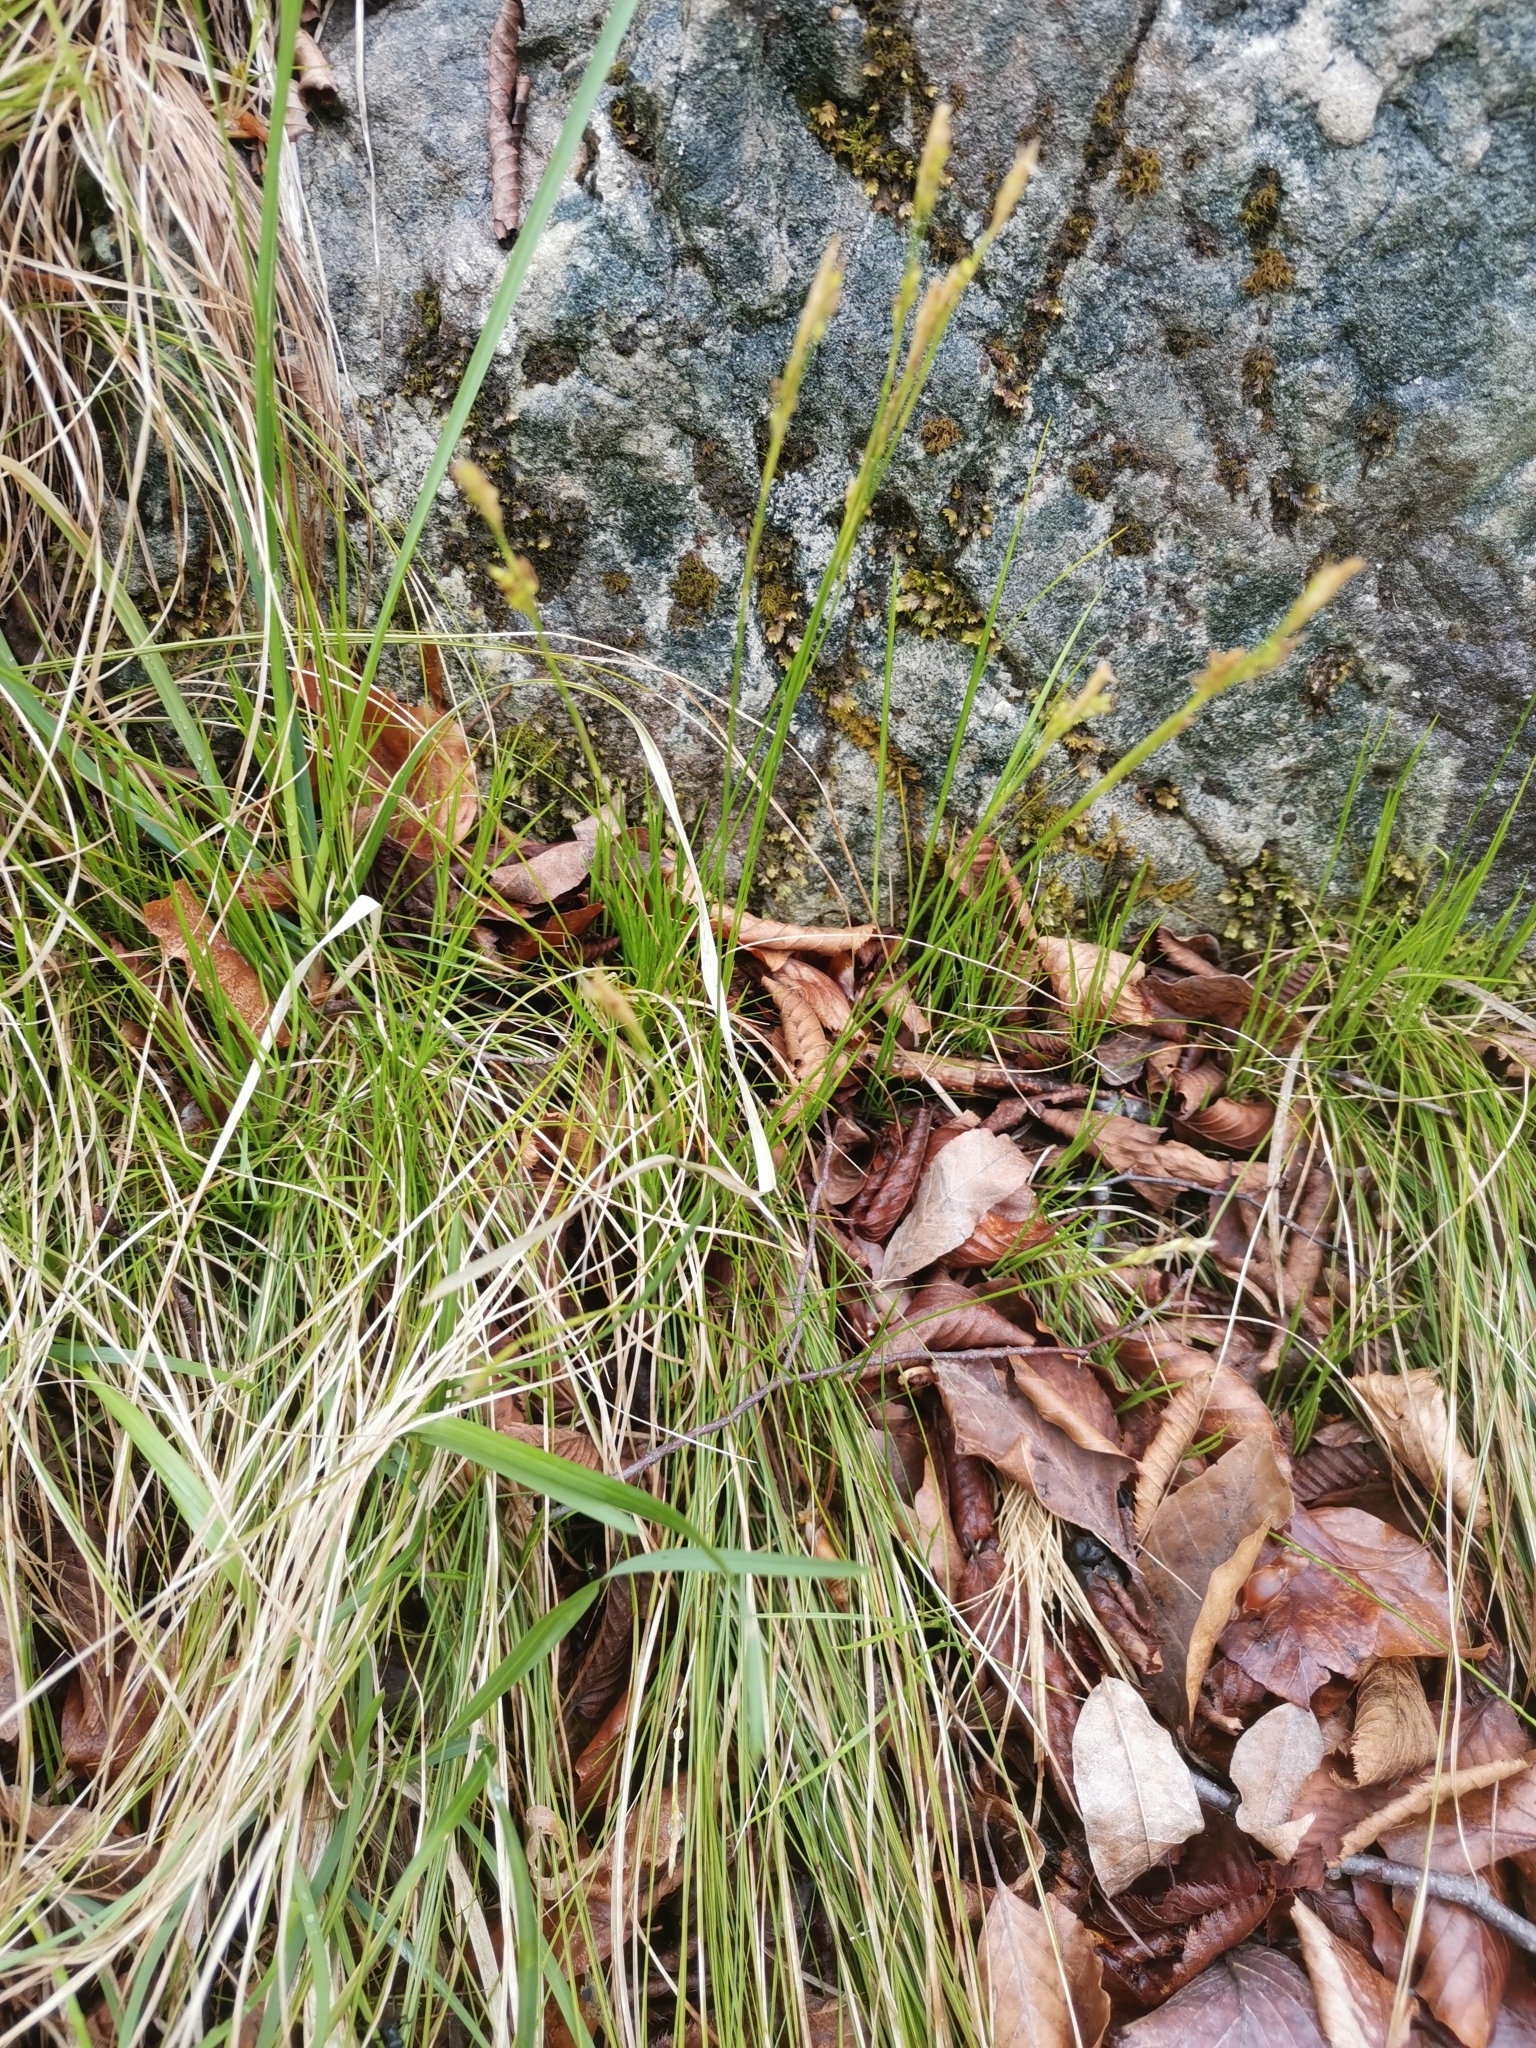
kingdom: Plantae
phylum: Tracheophyta
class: Liliopsida
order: Poales
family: Cyperaceae
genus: Carex
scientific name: Carex alba
